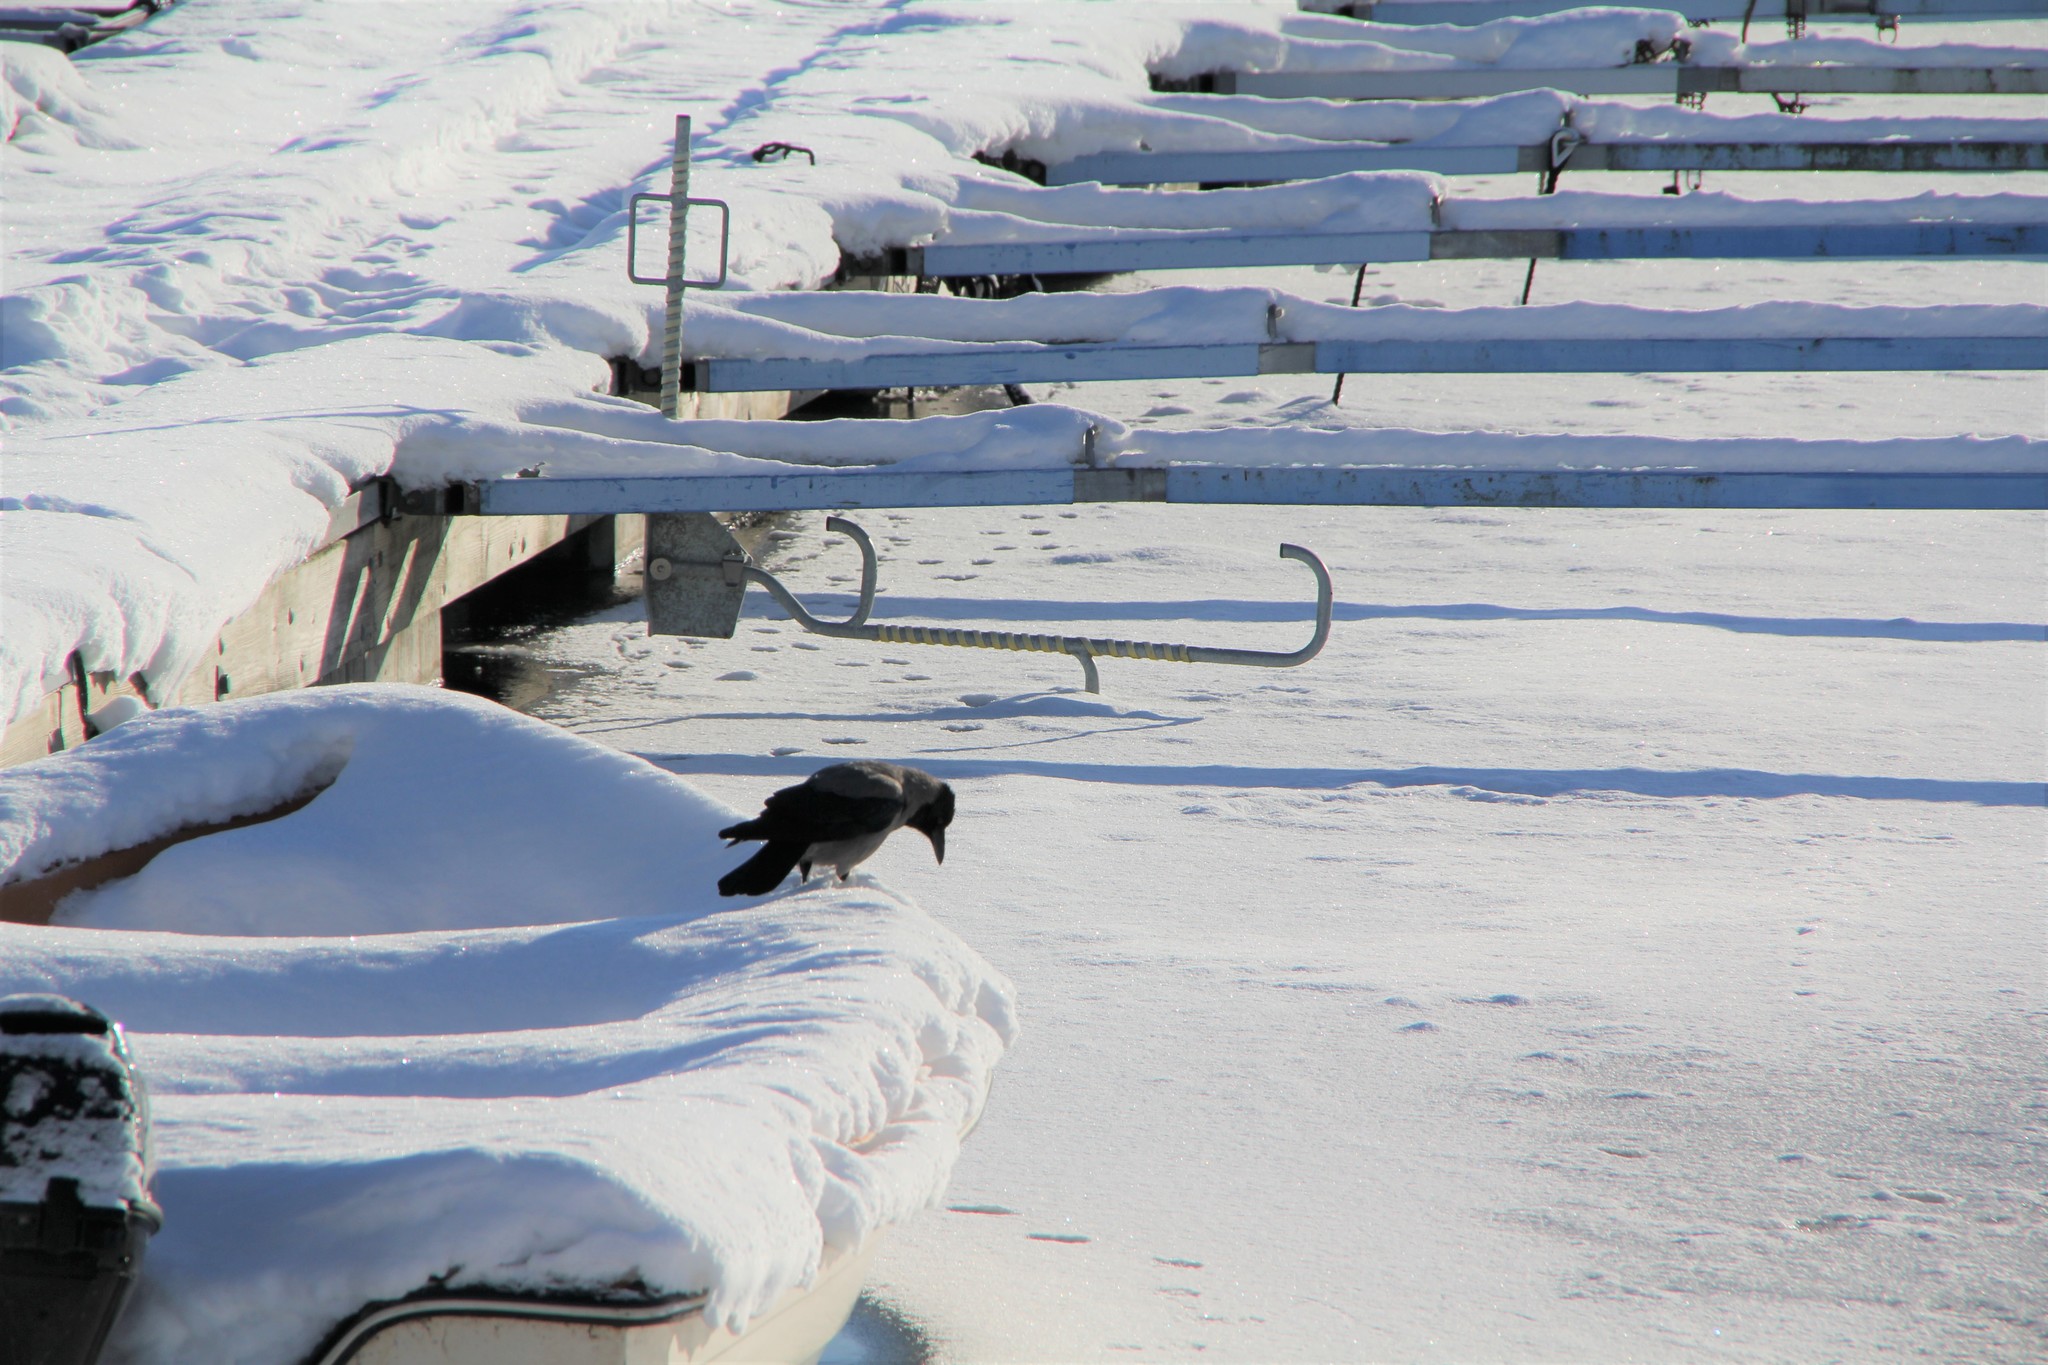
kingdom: Animalia
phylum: Chordata
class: Aves
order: Passeriformes
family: Corvidae
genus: Corvus
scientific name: Corvus cornix
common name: Hooded crow
